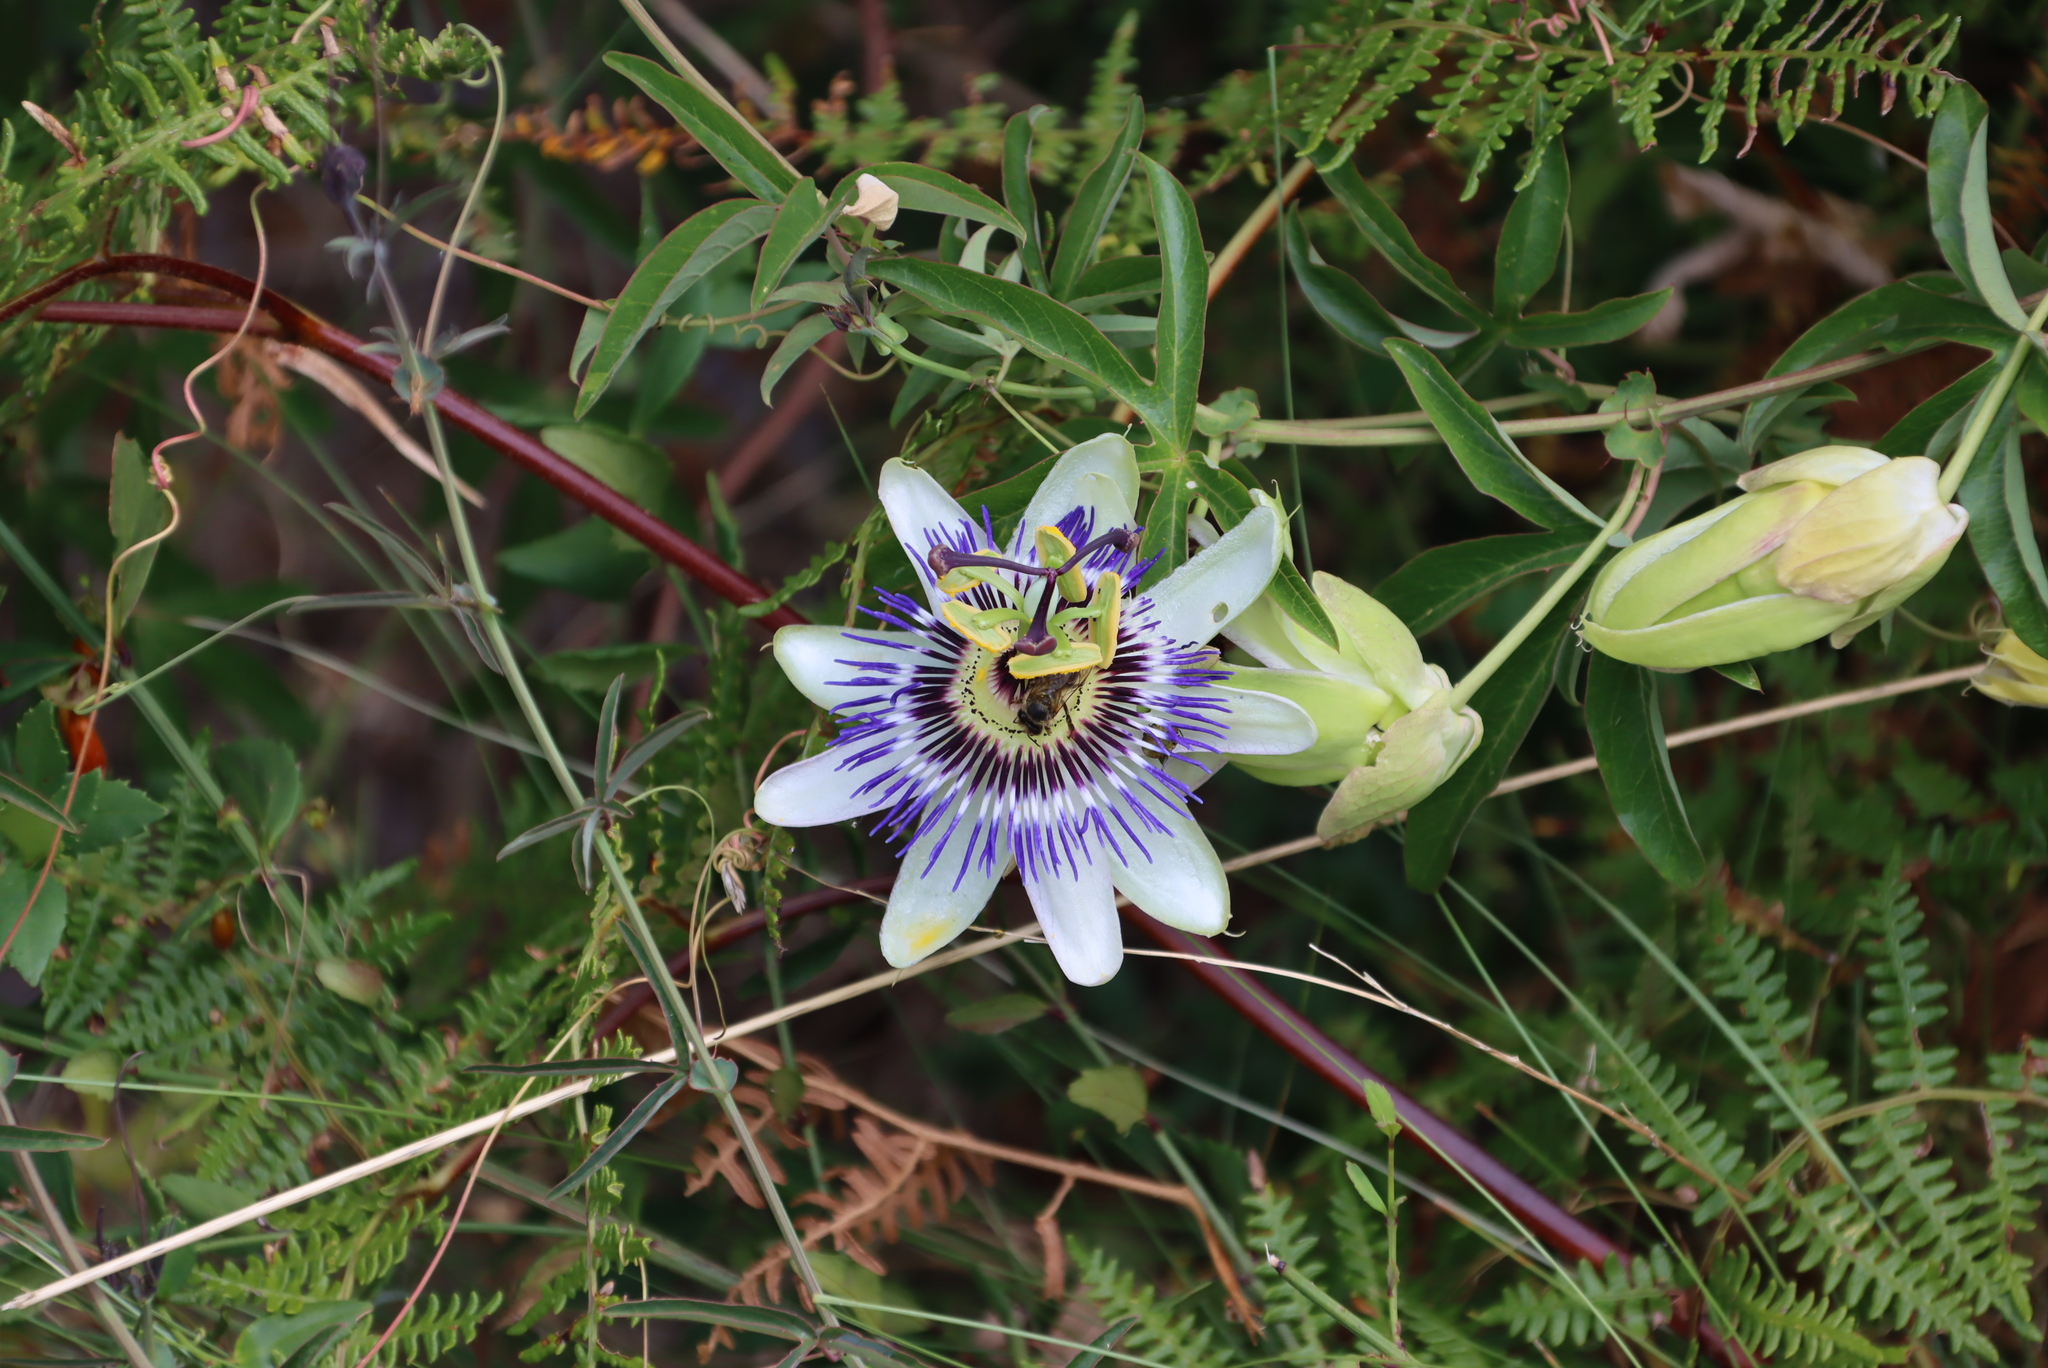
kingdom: Plantae
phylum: Tracheophyta
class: Magnoliopsida
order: Malpighiales
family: Passifloraceae
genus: Passiflora
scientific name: Passiflora caerulea
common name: Blue passionflower
